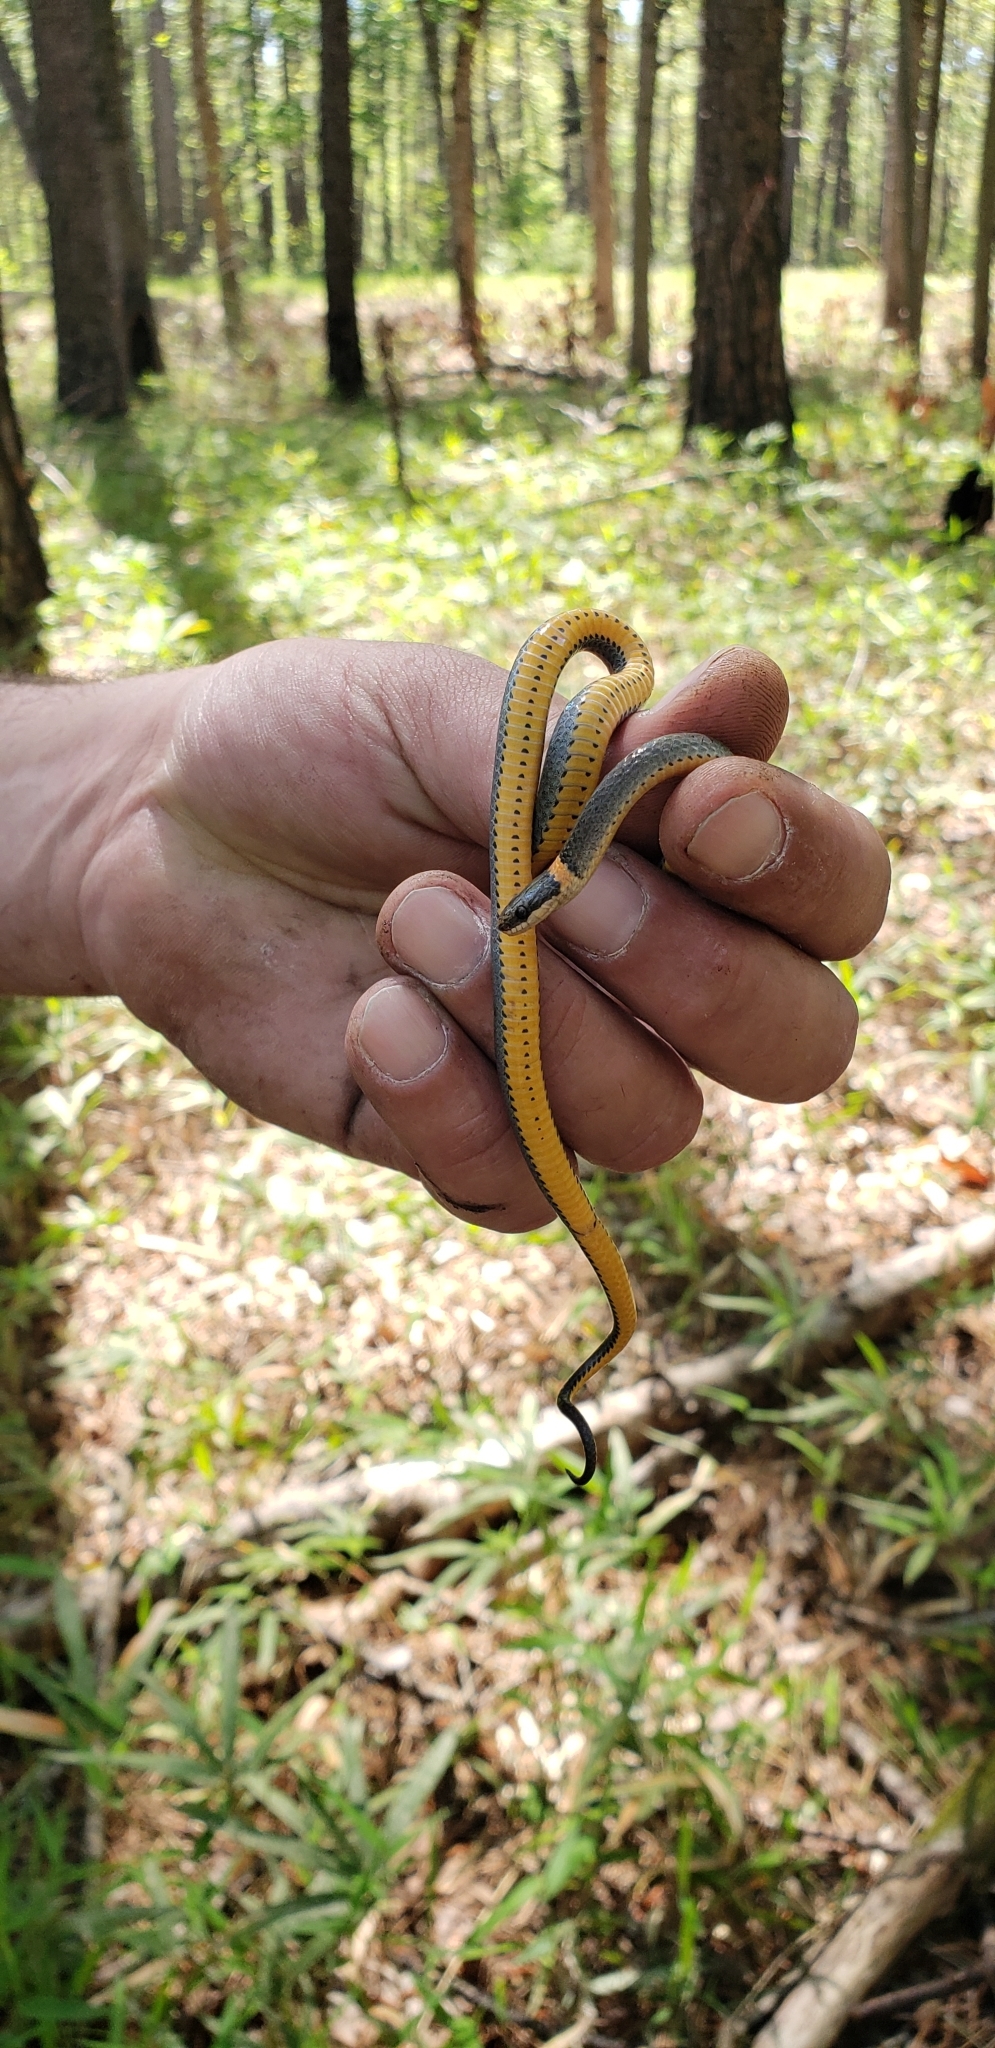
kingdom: Animalia
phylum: Chordata
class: Squamata
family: Colubridae
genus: Diadophis
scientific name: Diadophis punctatus
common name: Ringneck snake
